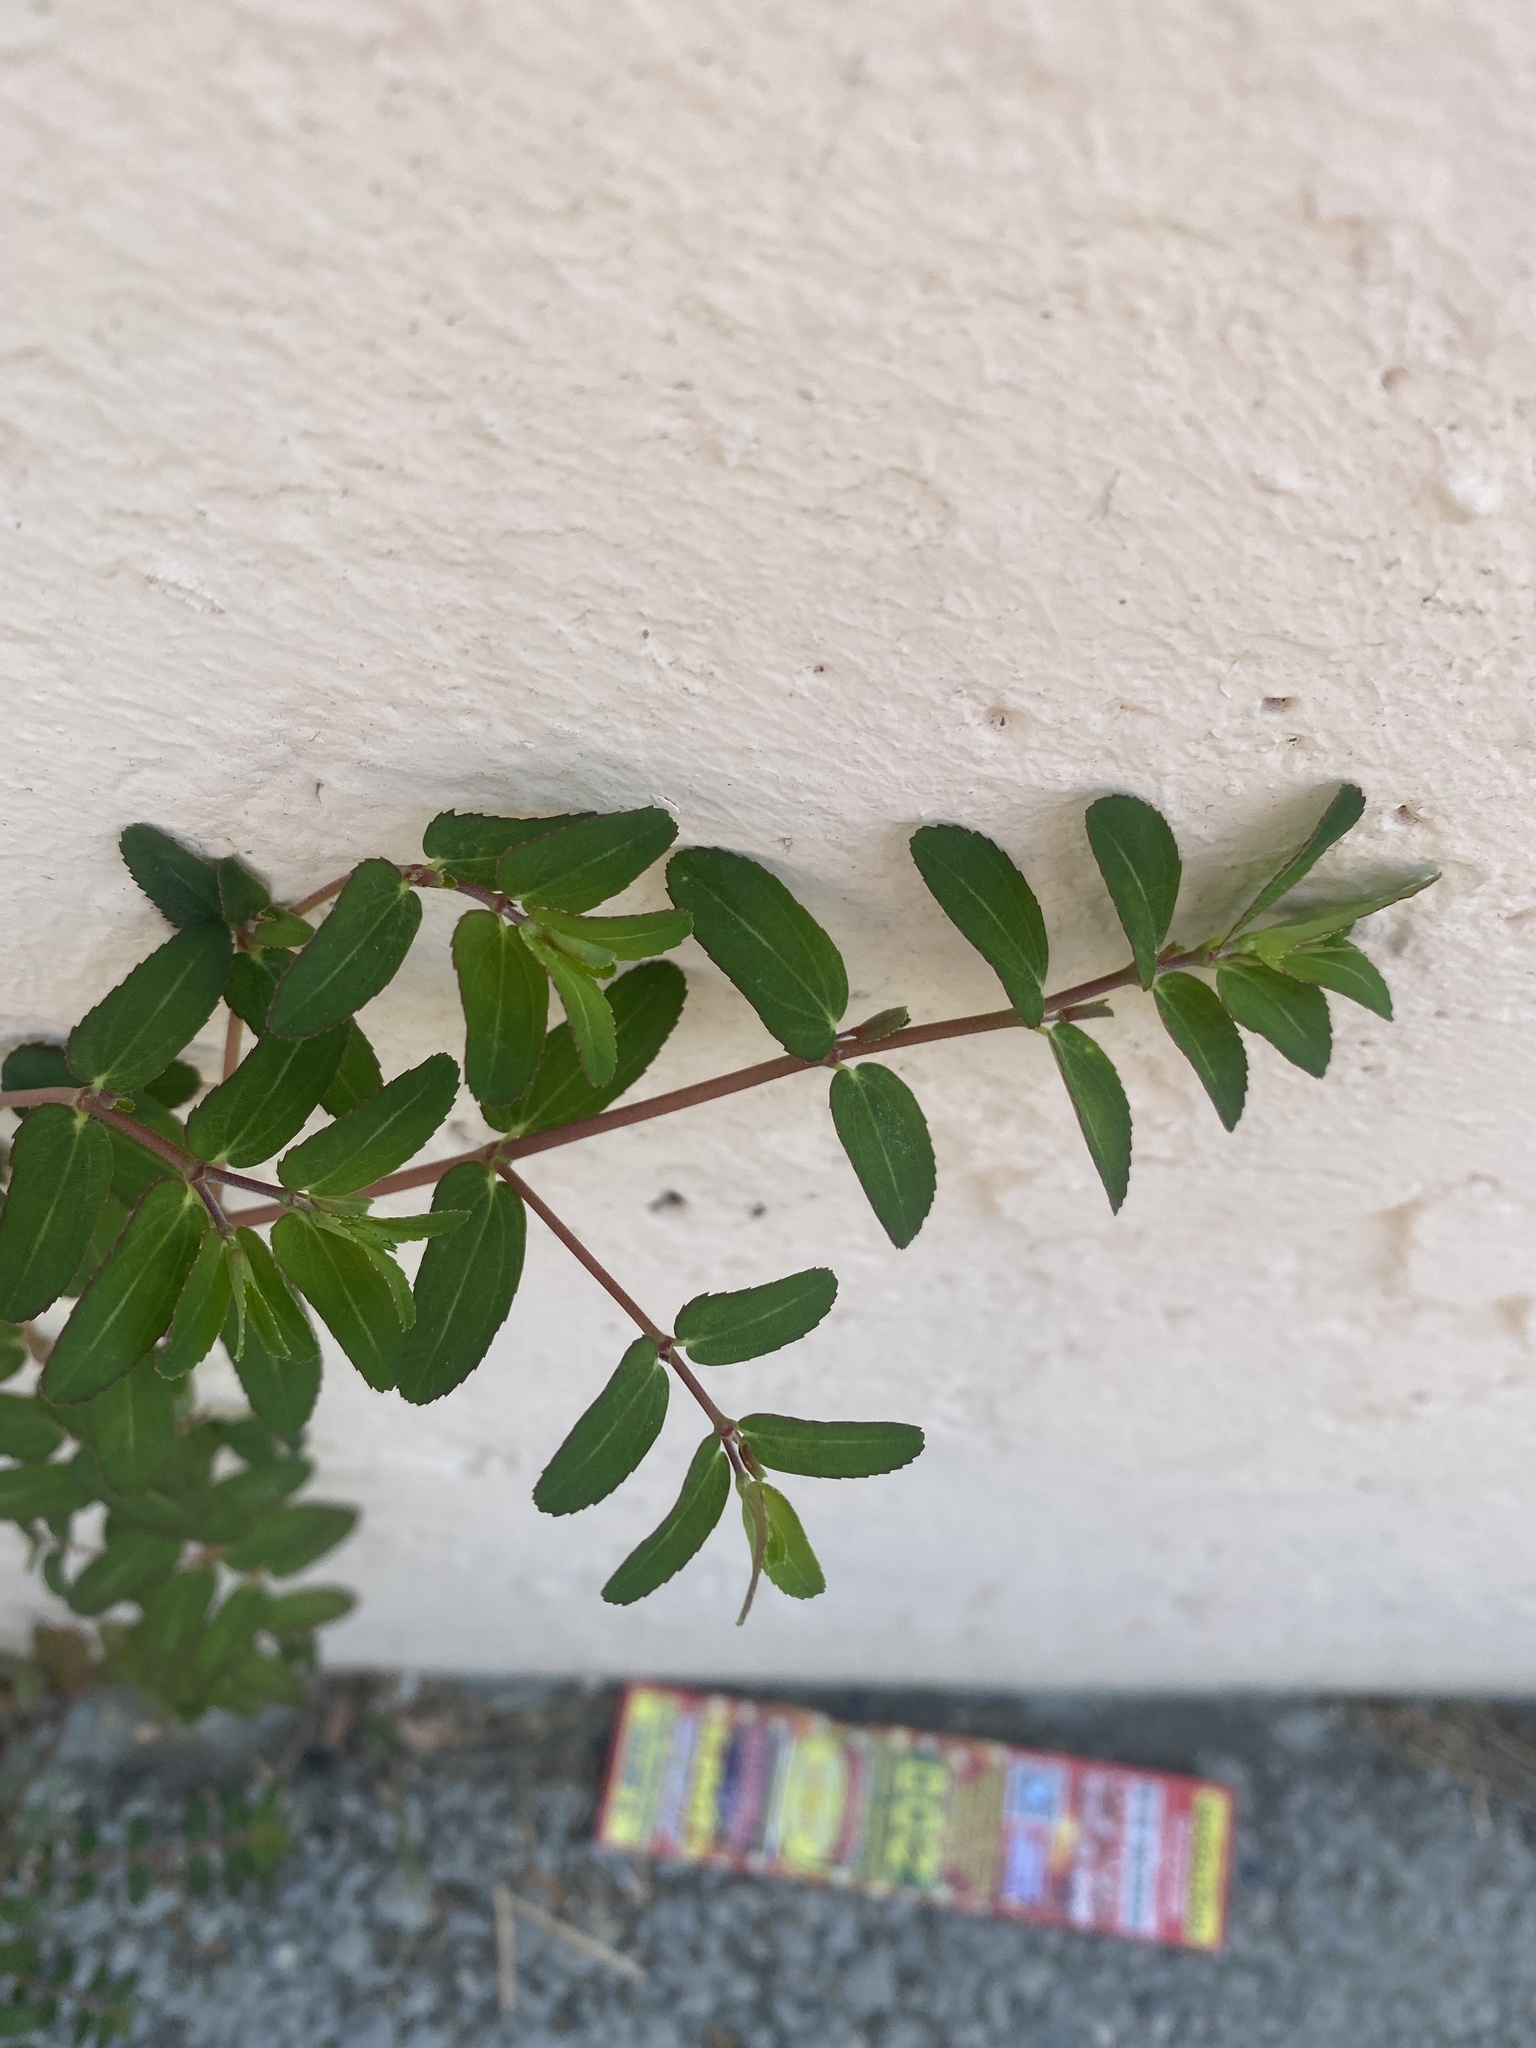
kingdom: Plantae
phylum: Tracheophyta
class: Magnoliopsida
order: Malpighiales
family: Euphorbiaceae
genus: Euphorbia
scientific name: Euphorbia nutans
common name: Eyebane
